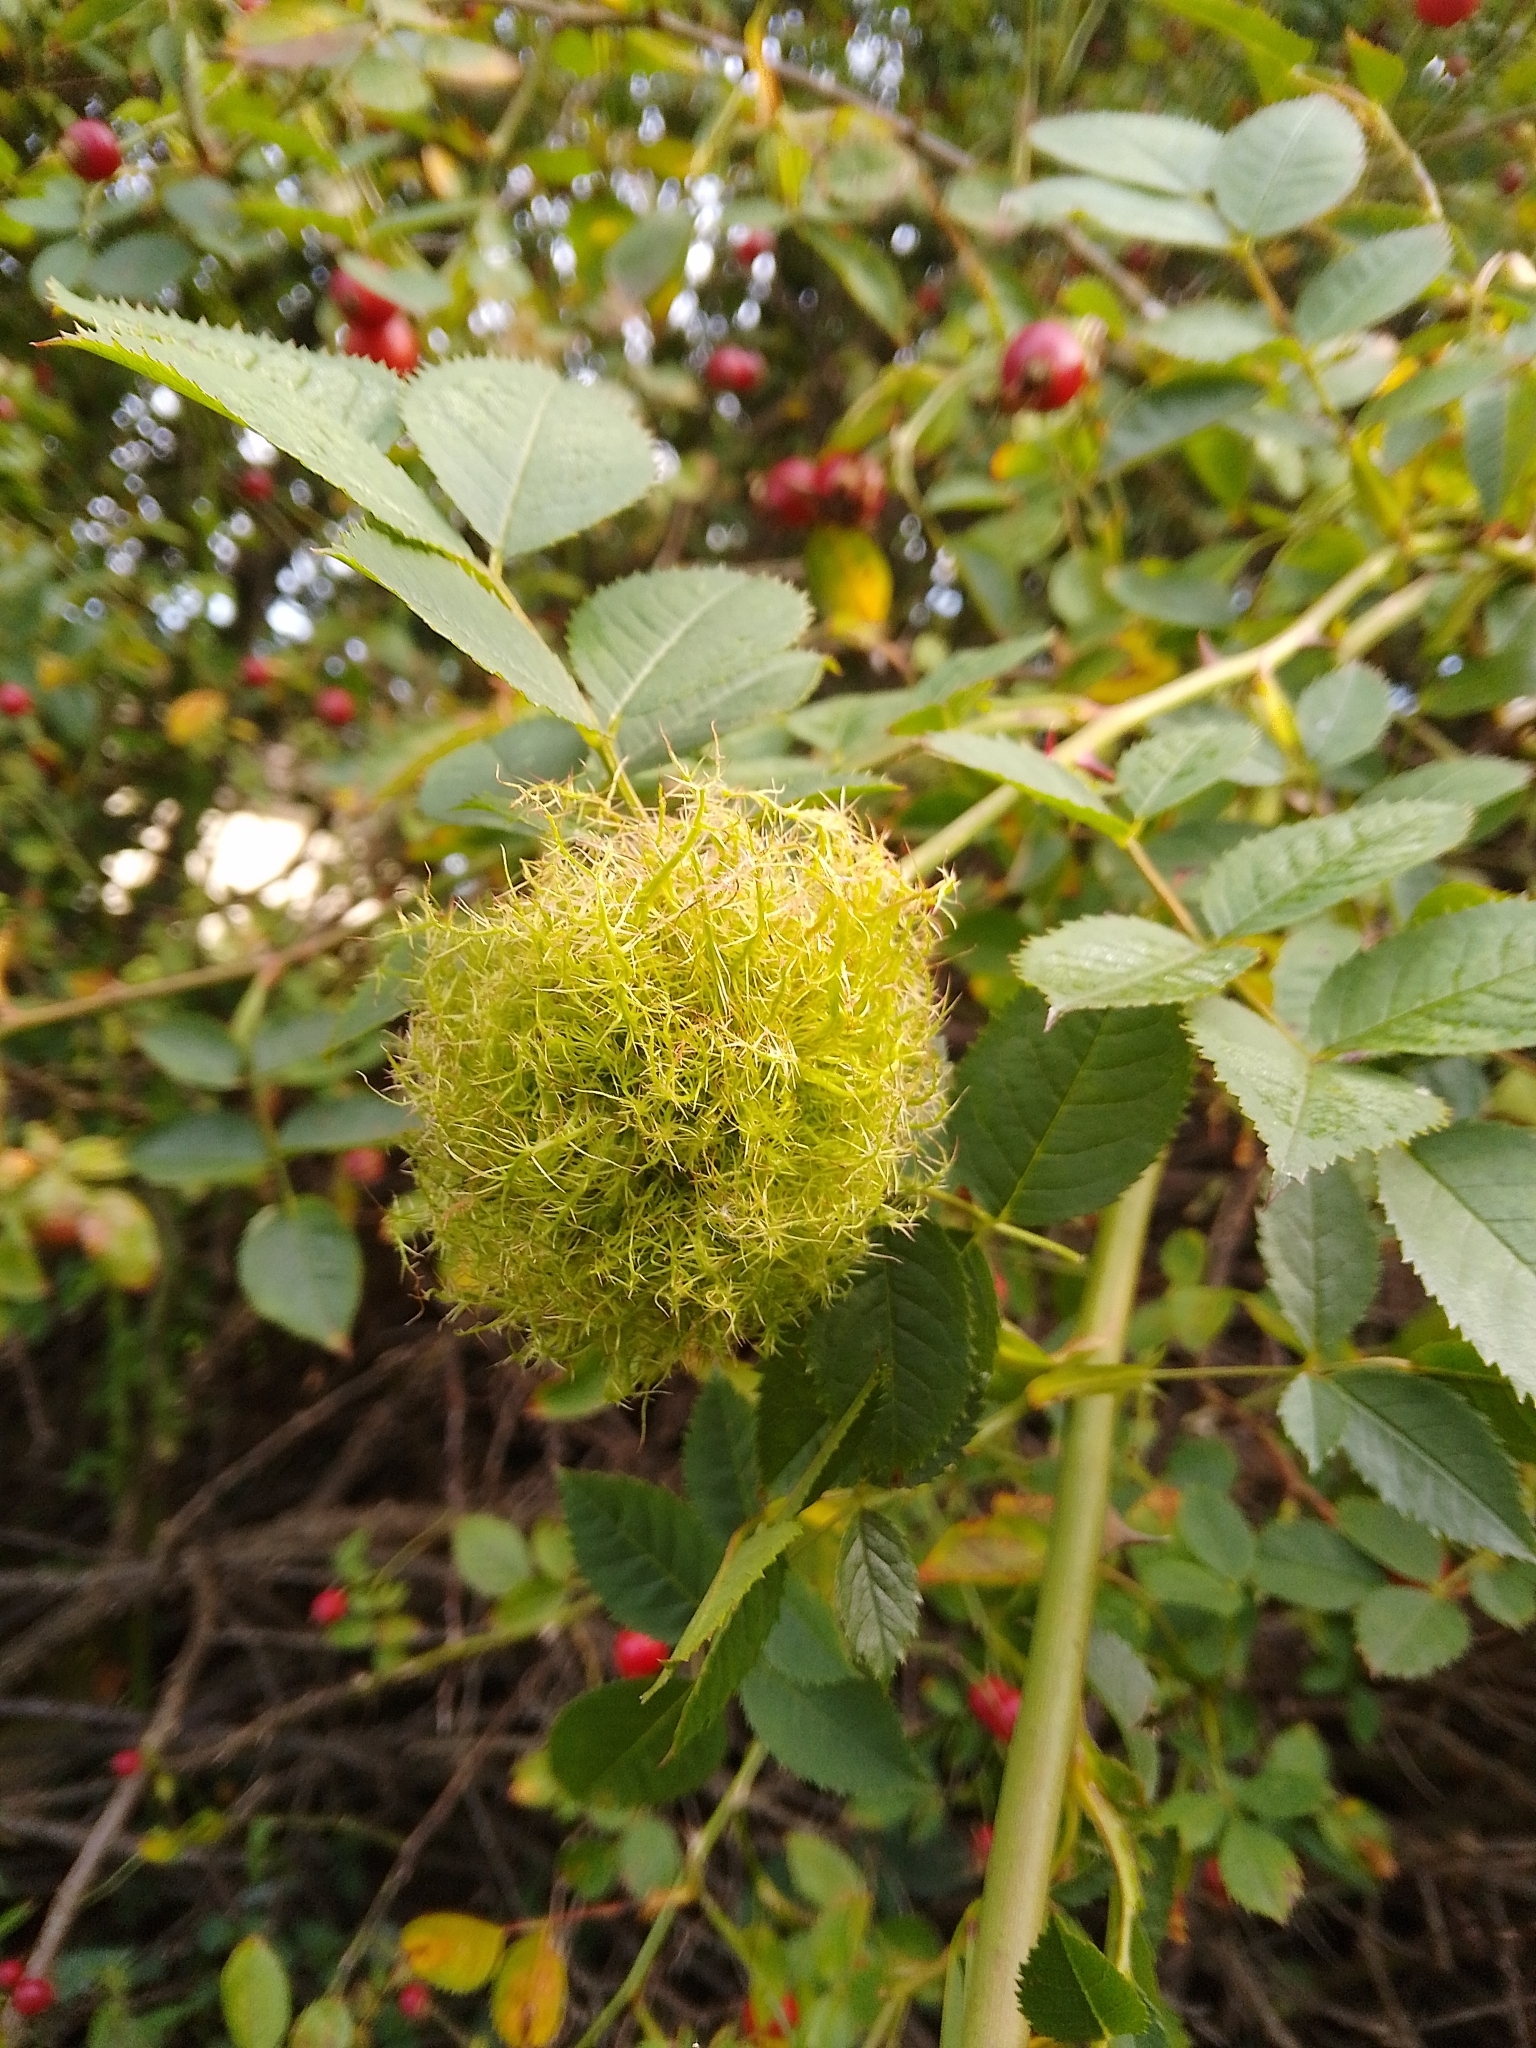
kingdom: Animalia
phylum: Arthropoda
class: Insecta
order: Hymenoptera
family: Cynipidae
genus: Diplolepis
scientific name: Diplolepis rosae
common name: Bedeguar gall
